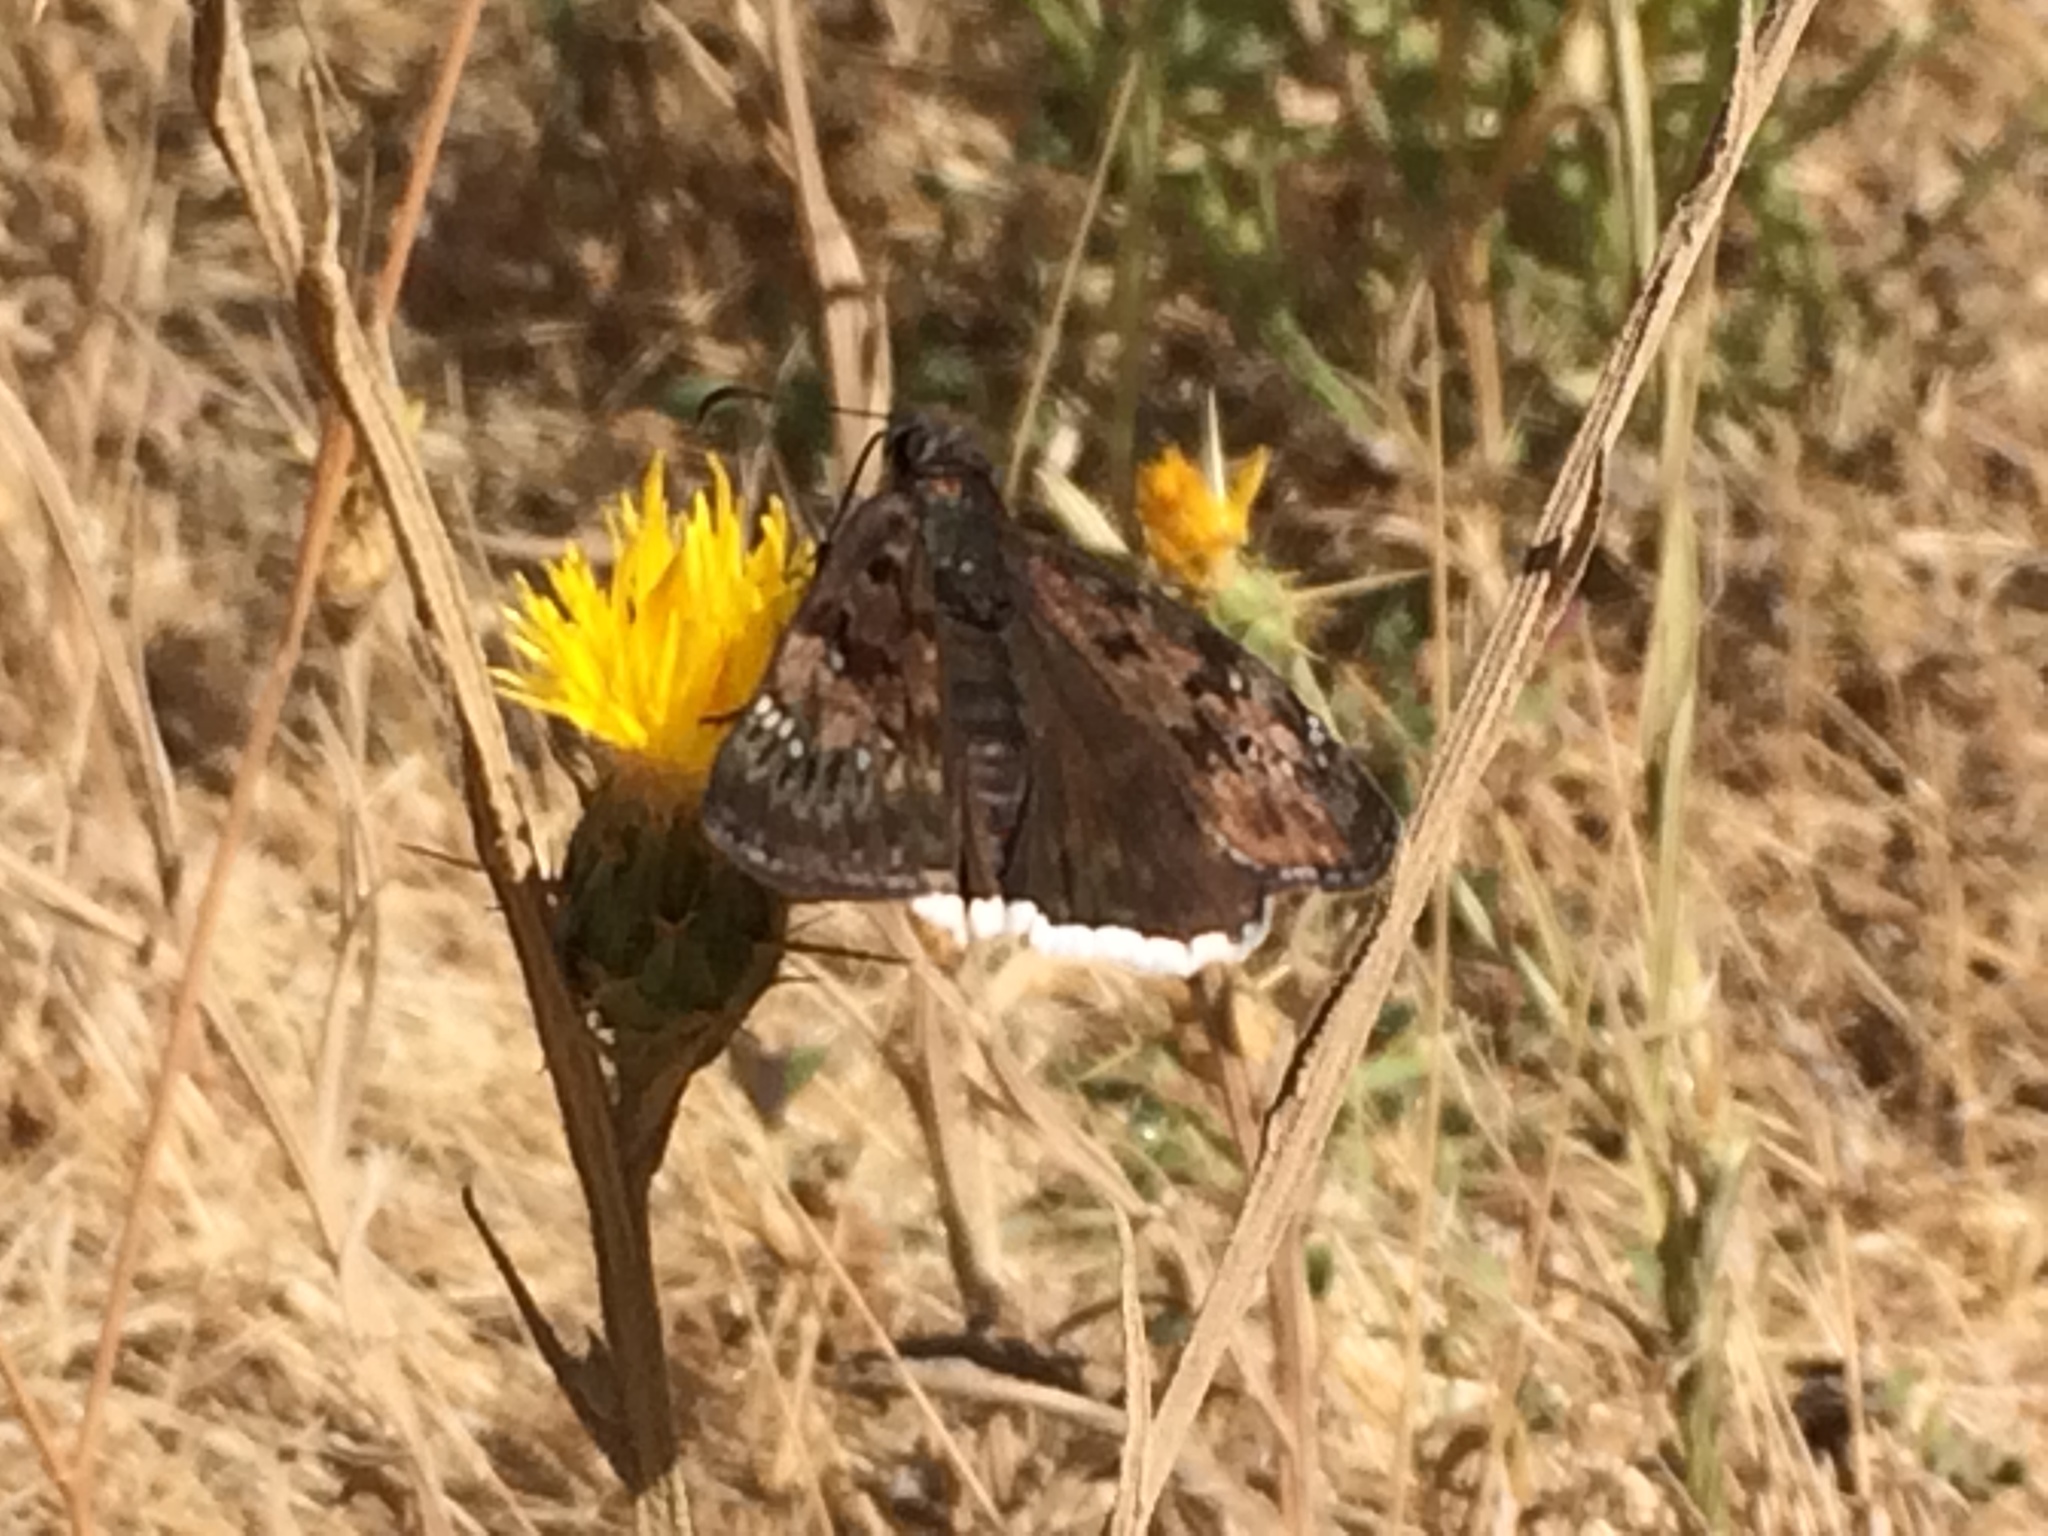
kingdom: Animalia
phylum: Arthropoda
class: Insecta
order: Lepidoptera
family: Hesperiidae
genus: Erynnis
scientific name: Erynnis tristis
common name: Mournful duskywing
